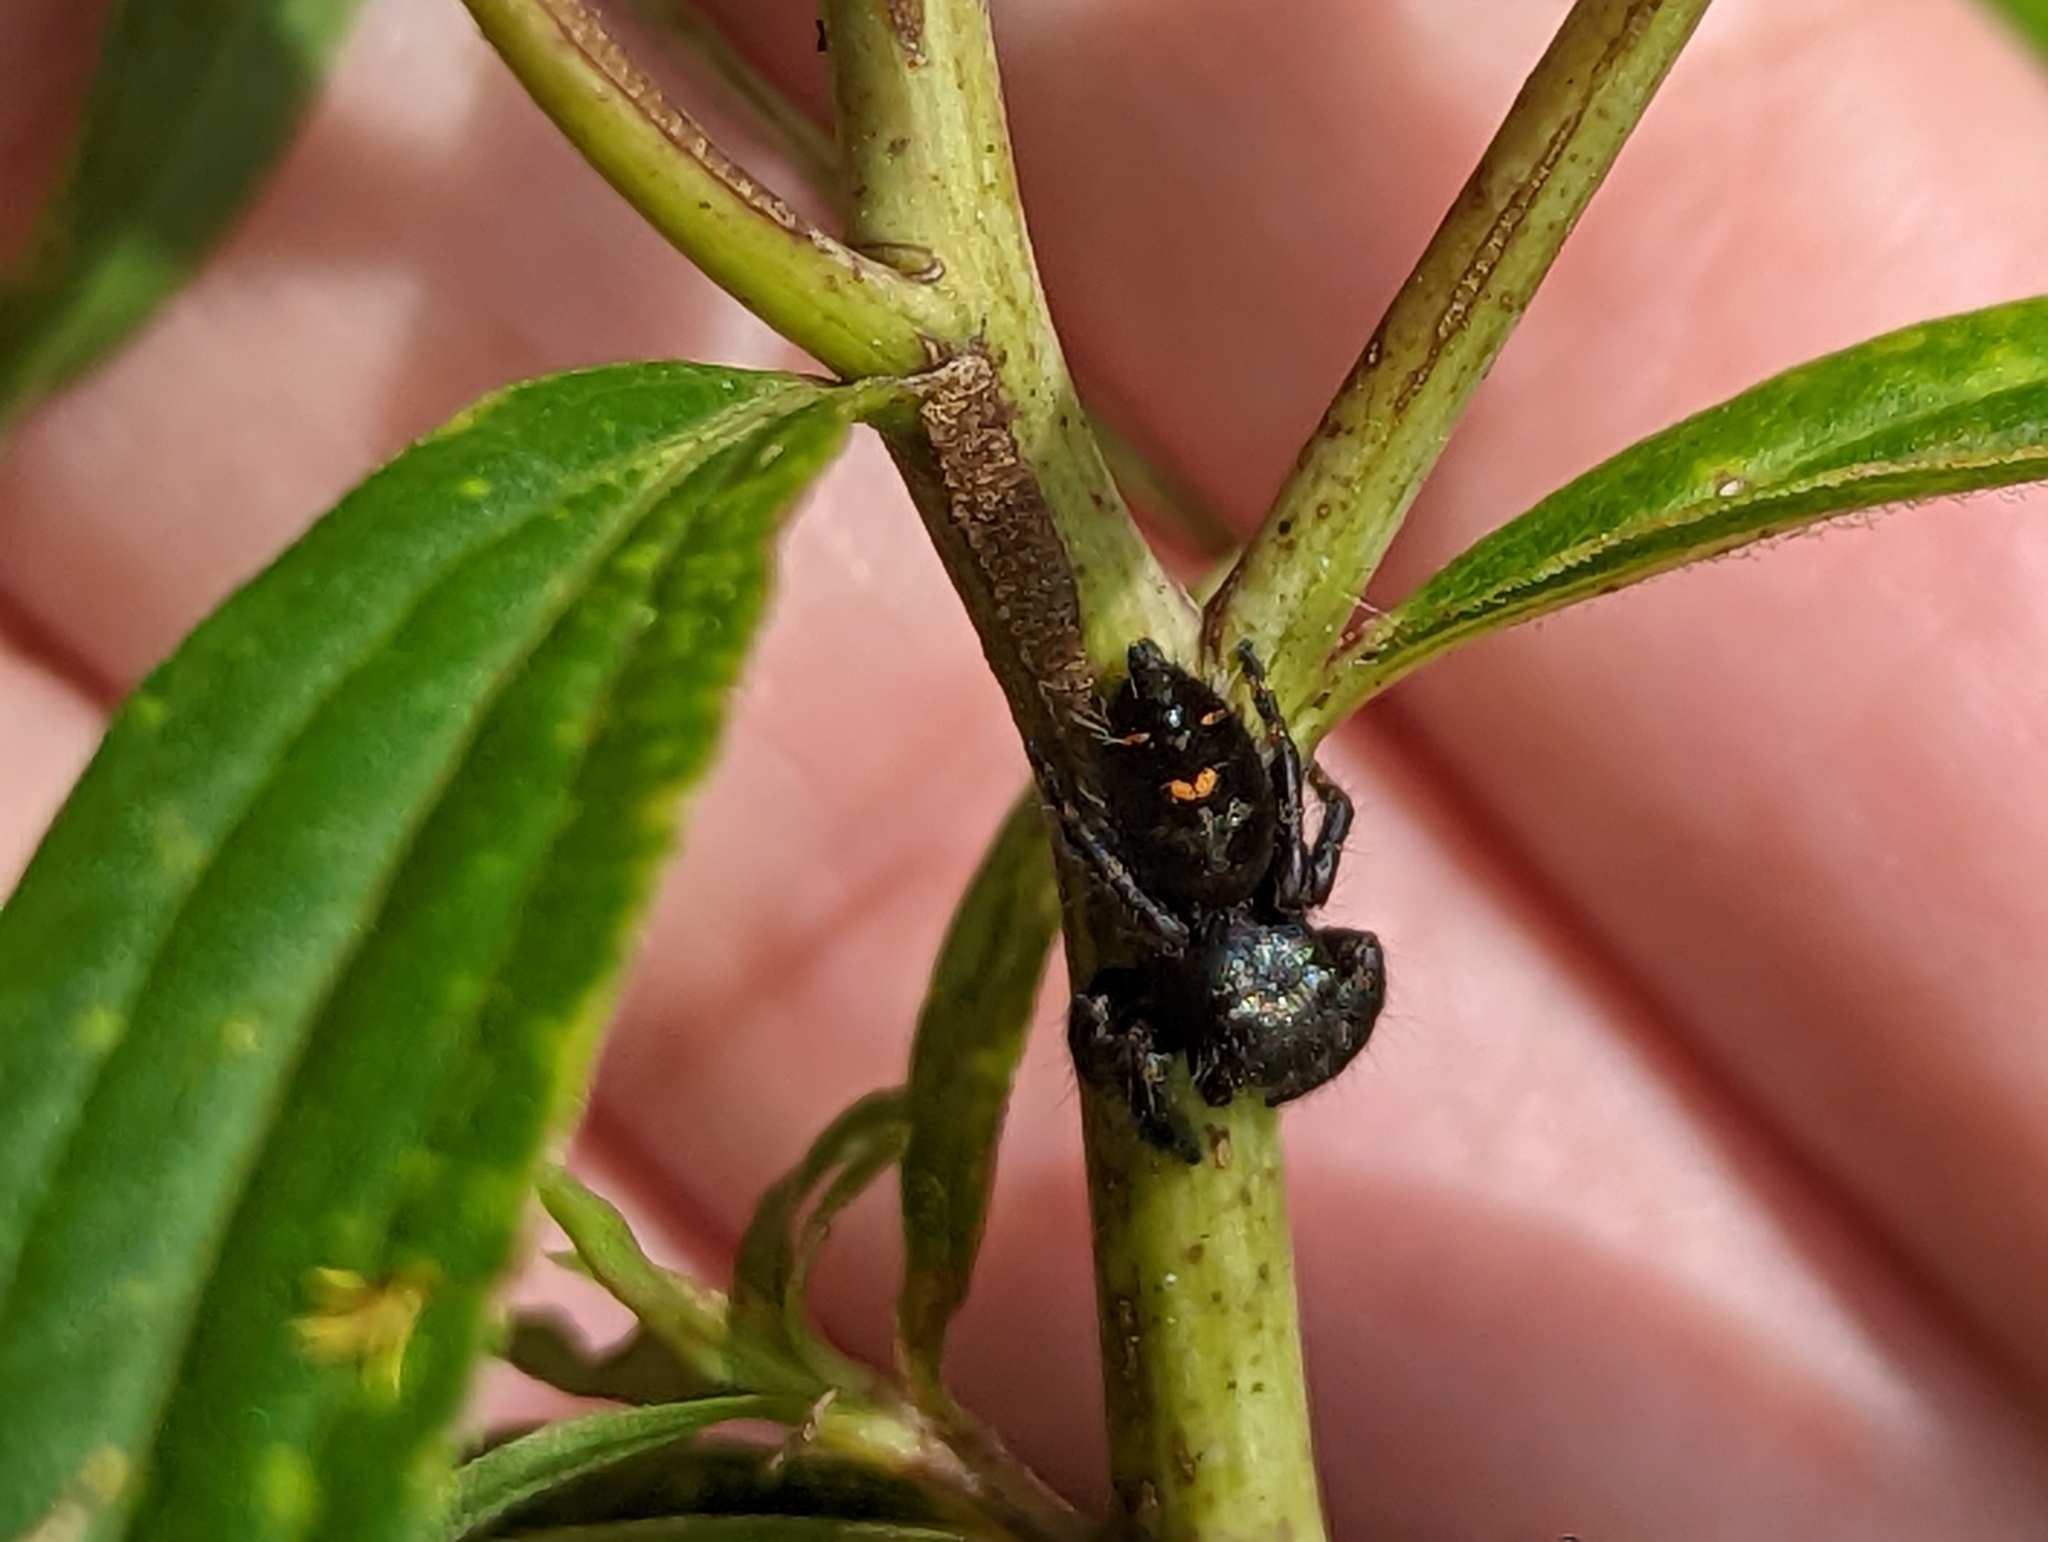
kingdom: Animalia
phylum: Arthropoda
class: Arachnida
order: Araneae
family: Salticidae
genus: Phidippus
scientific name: Phidippus audax
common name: Bold jumper
